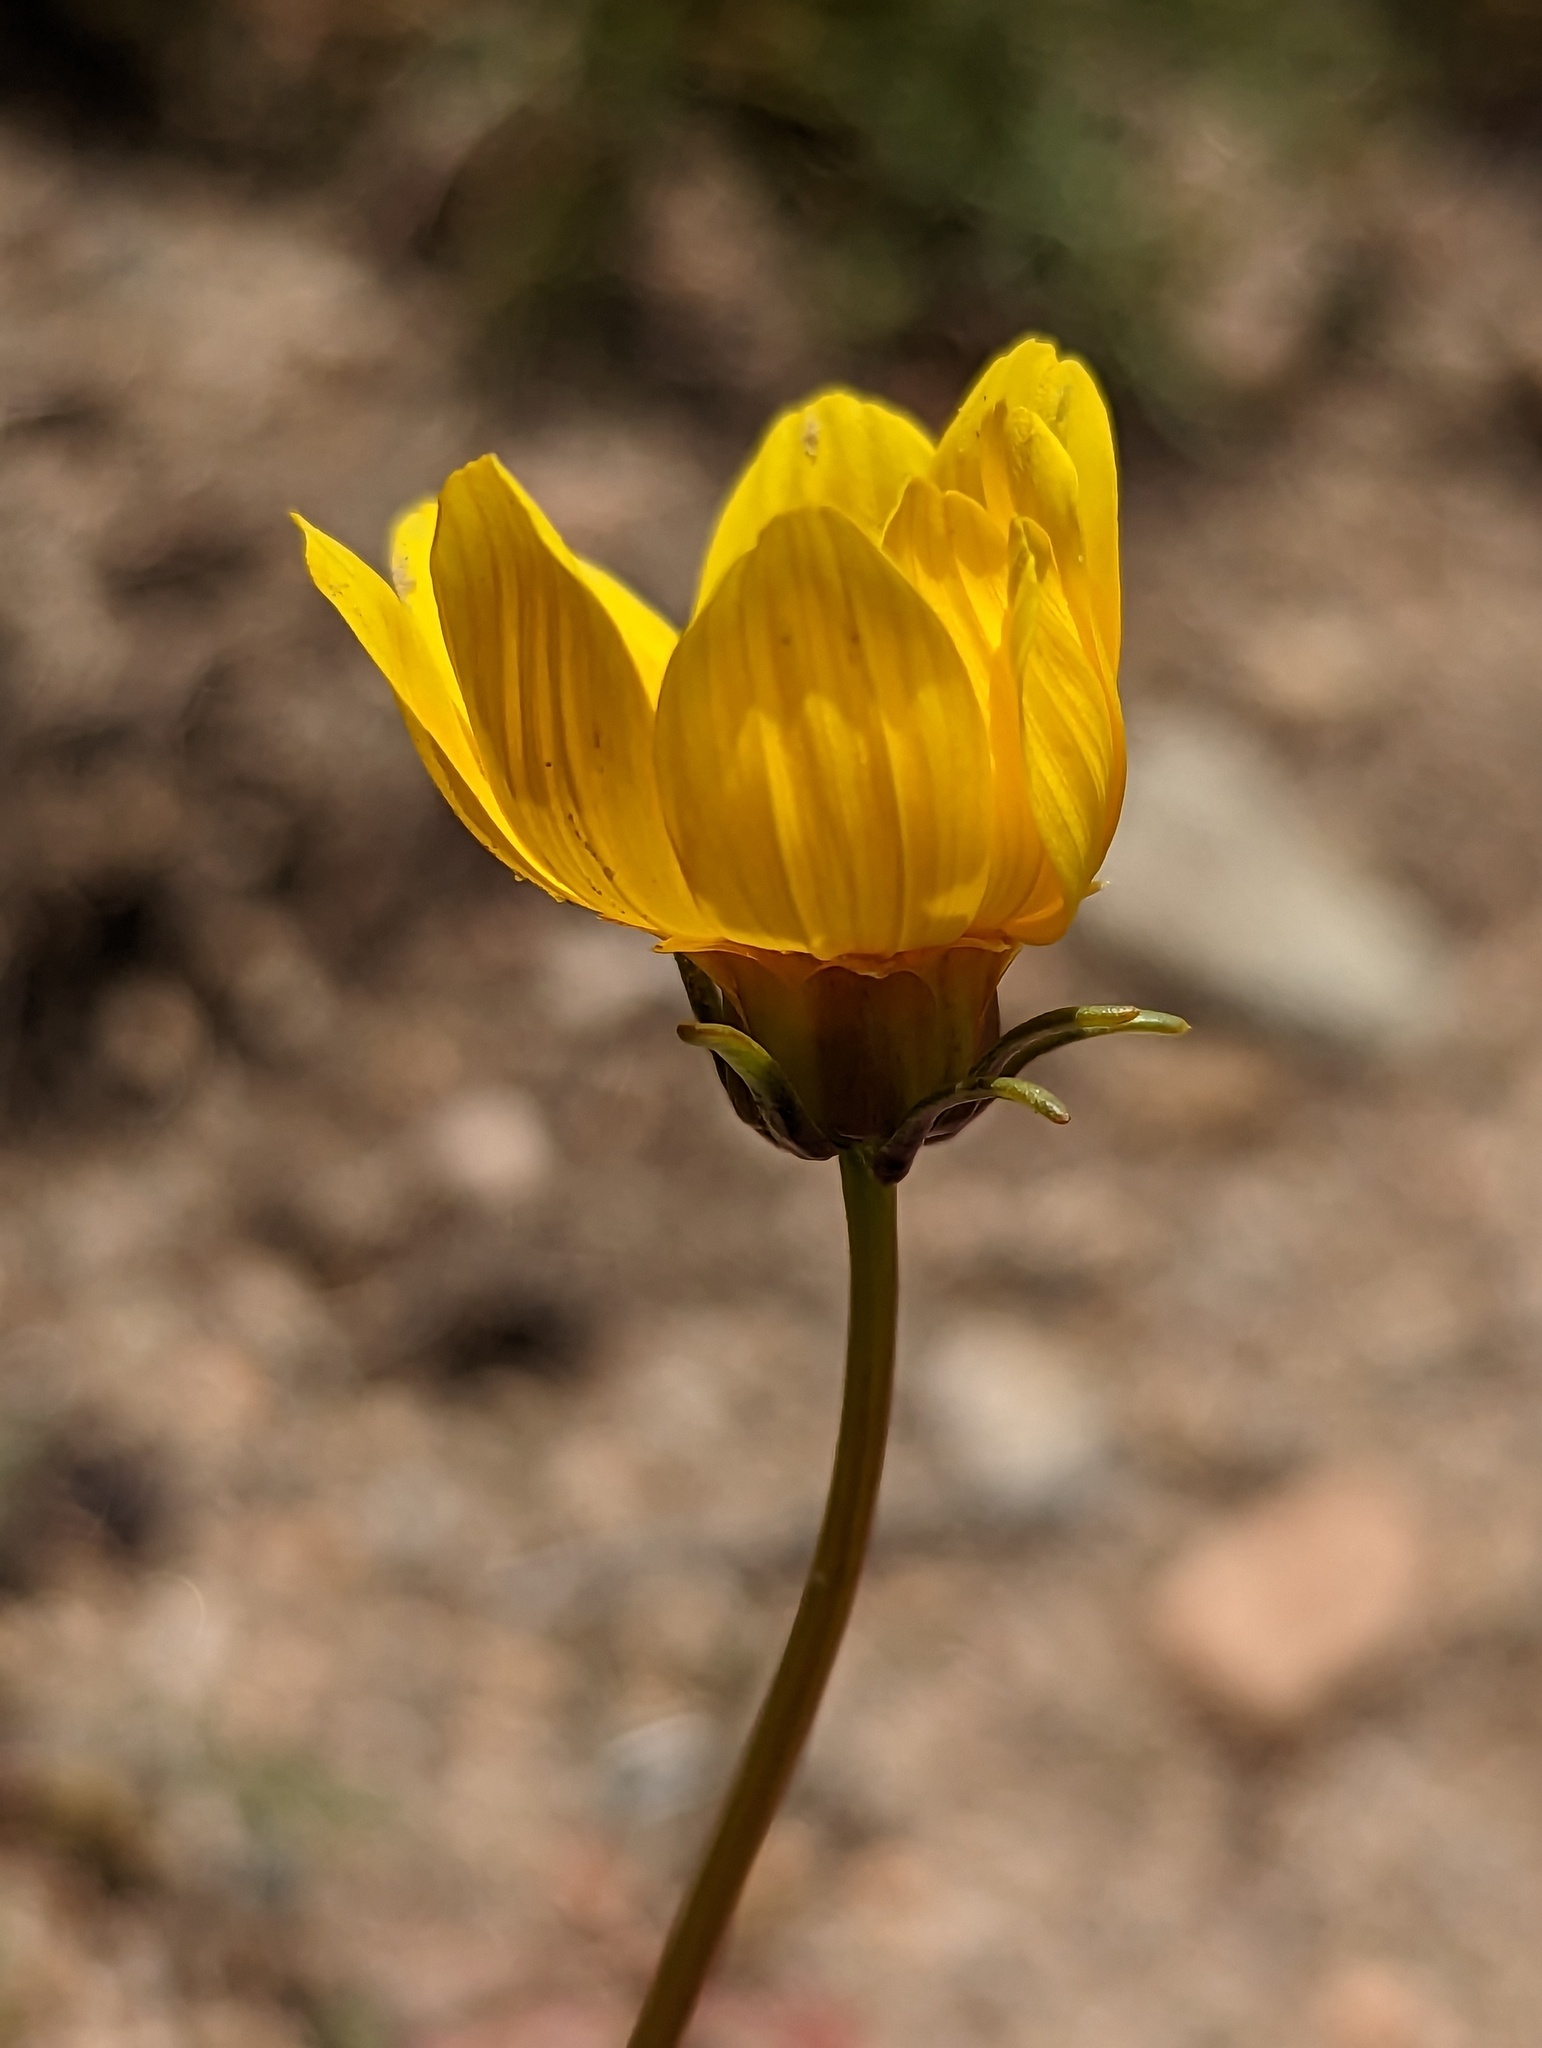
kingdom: Plantae
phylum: Tracheophyta
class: Magnoliopsida
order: Asterales
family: Asteraceae
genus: Coreopsis
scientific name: Coreopsis bigelovii
